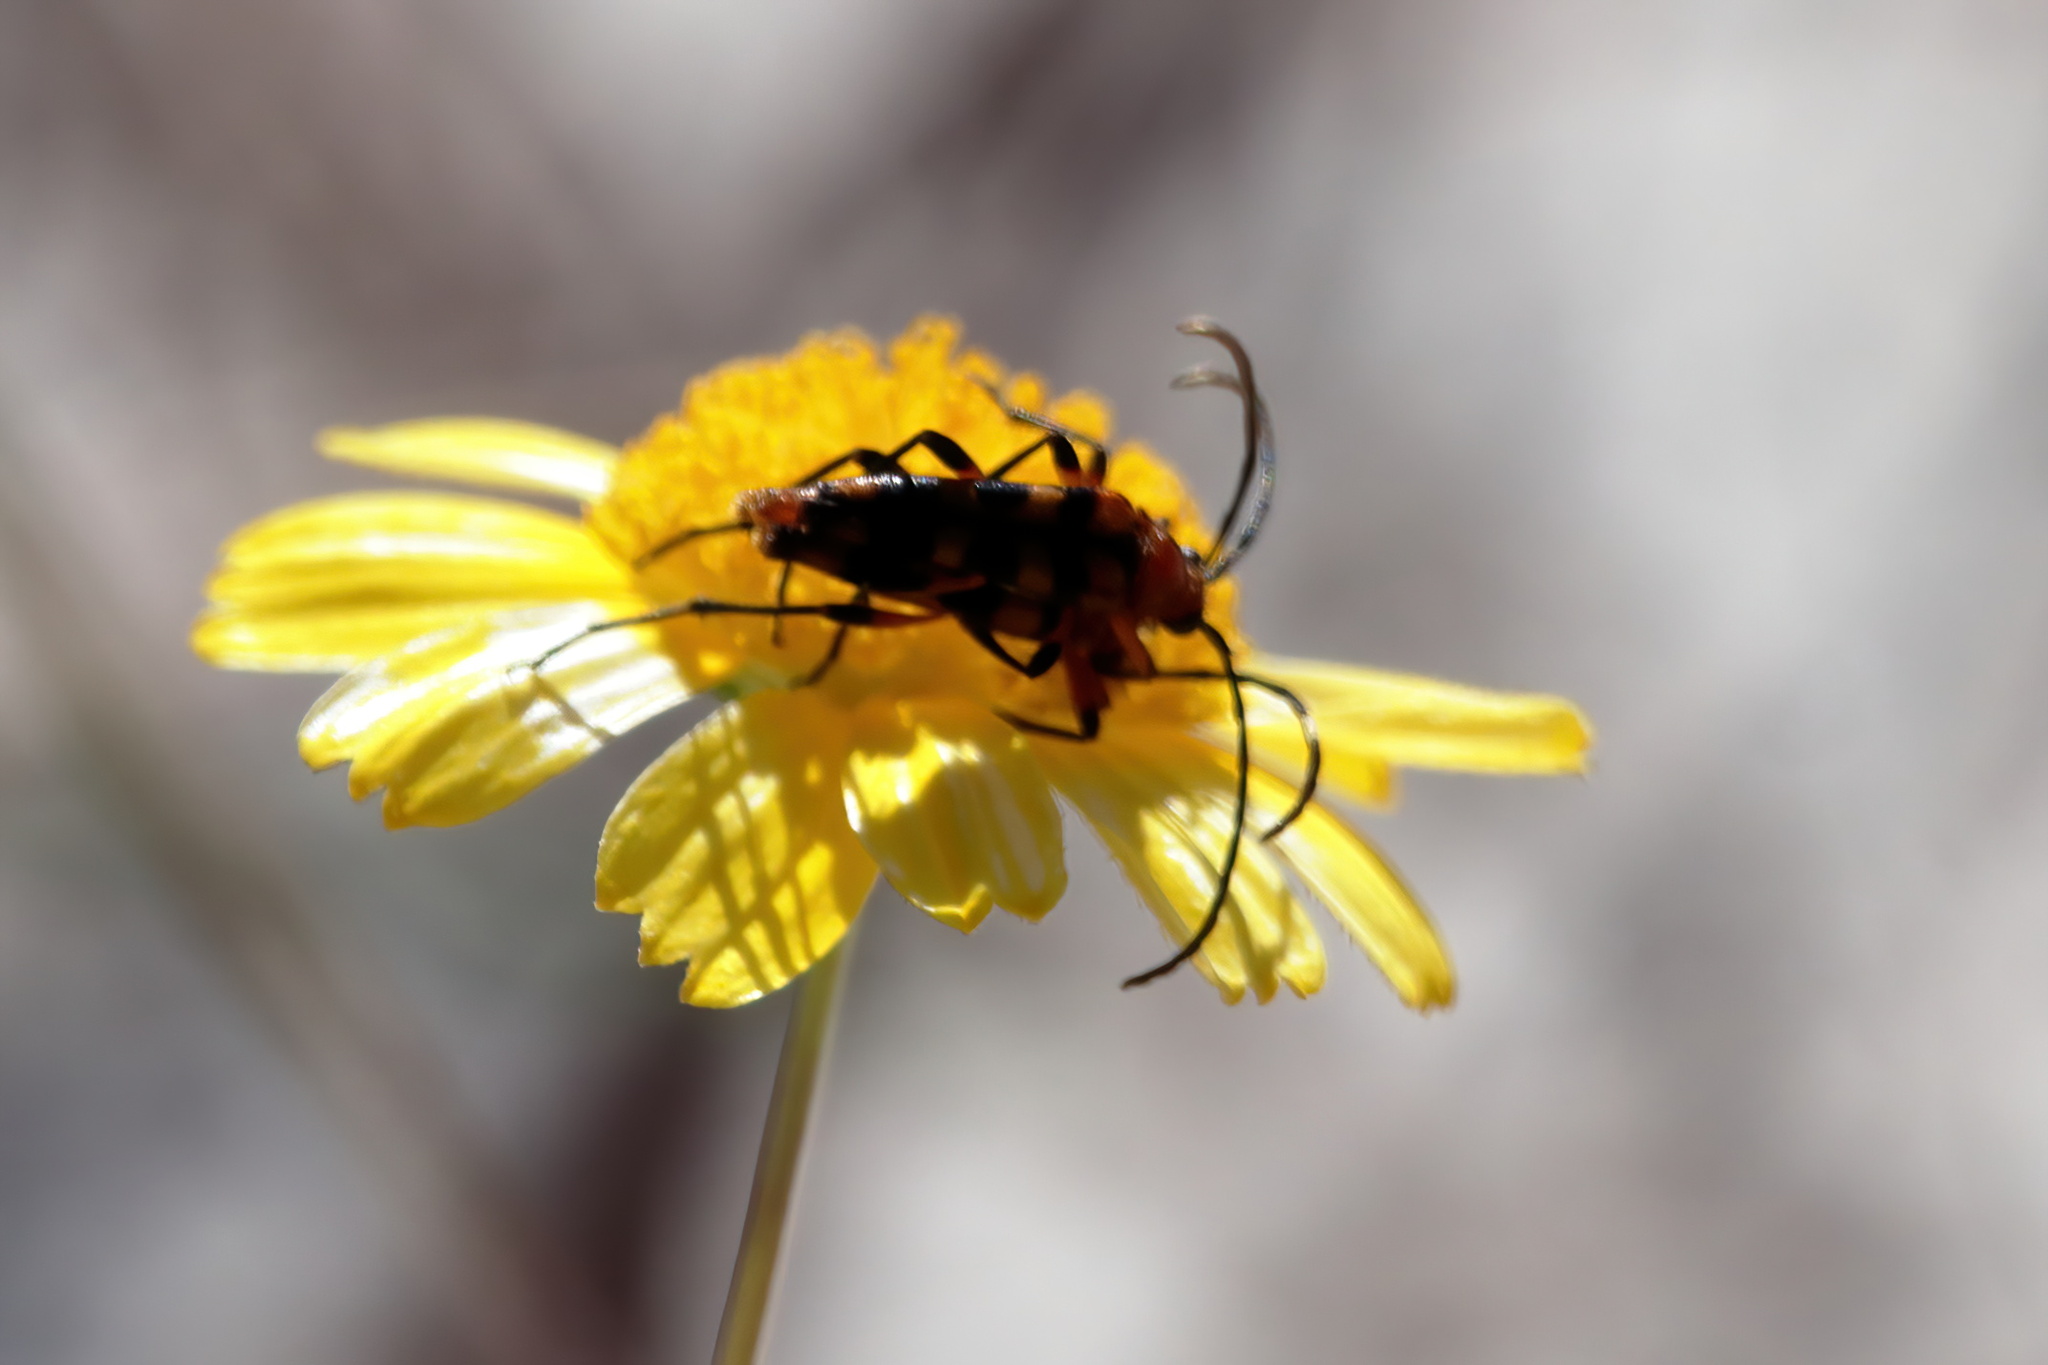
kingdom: Animalia
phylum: Arthropoda
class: Insecta
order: Coleoptera
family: Cerambycidae
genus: Strangalia
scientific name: Strangalia sexnotata
